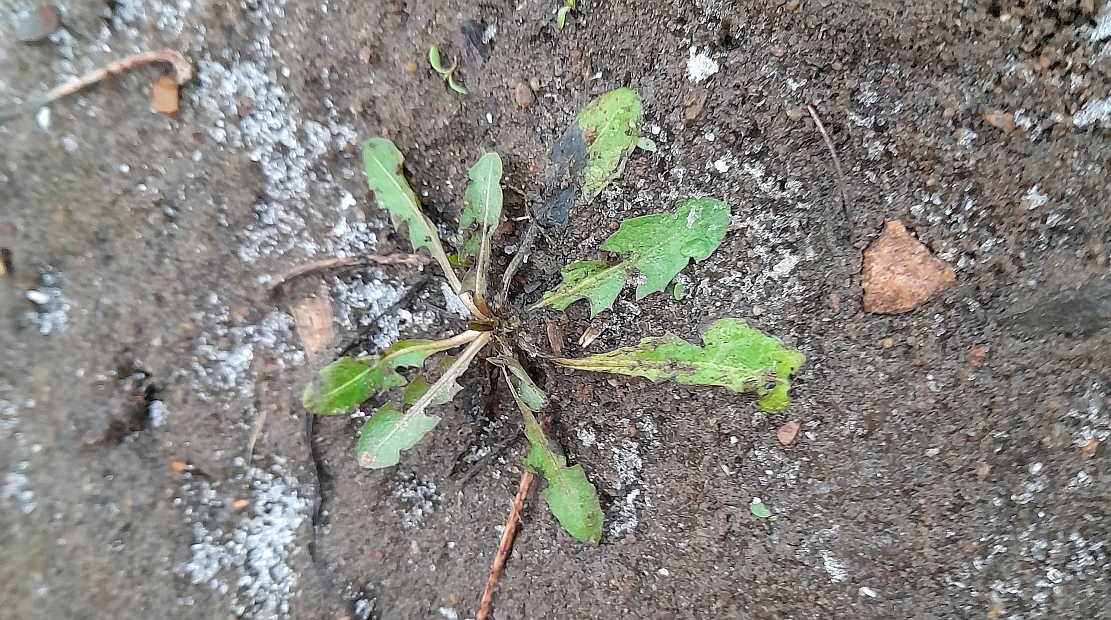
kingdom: Plantae
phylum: Tracheophyta
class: Magnoliopsida
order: Asterales
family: Asteraceae
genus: Taraxacum
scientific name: Taraxacum officinale
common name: Common dandelion
